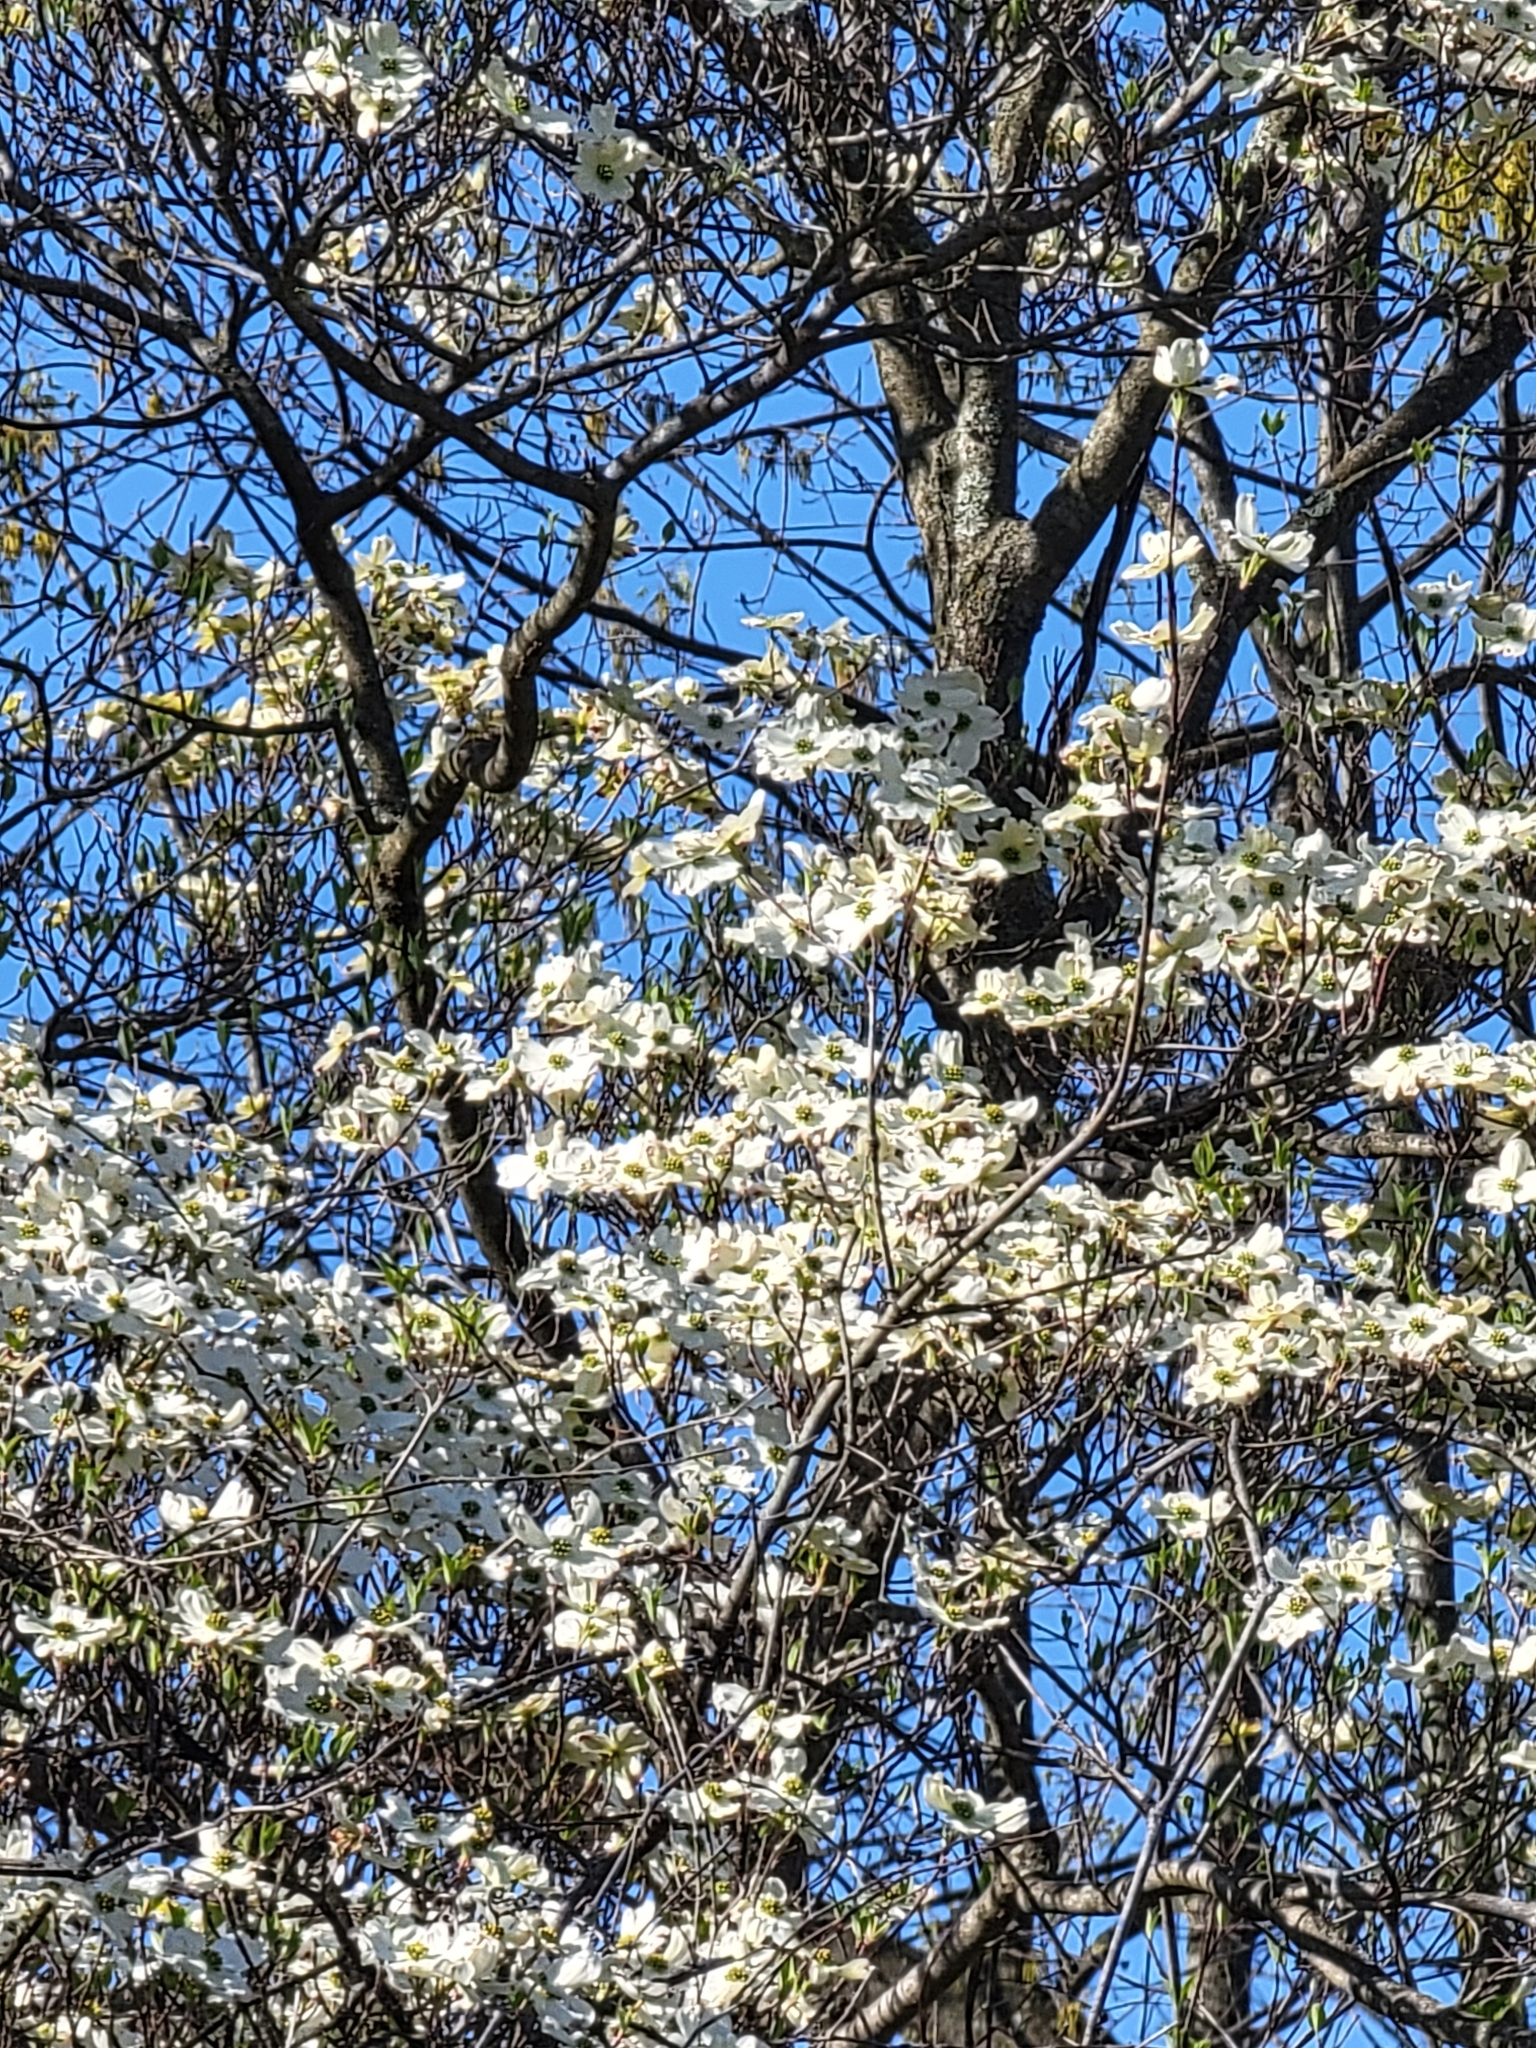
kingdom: Plantae
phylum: Tracheophyta
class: Magnoliopsida
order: Cornales
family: Cornaceae
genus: Cornus
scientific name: Cornus florida
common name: Flowering dogwood
